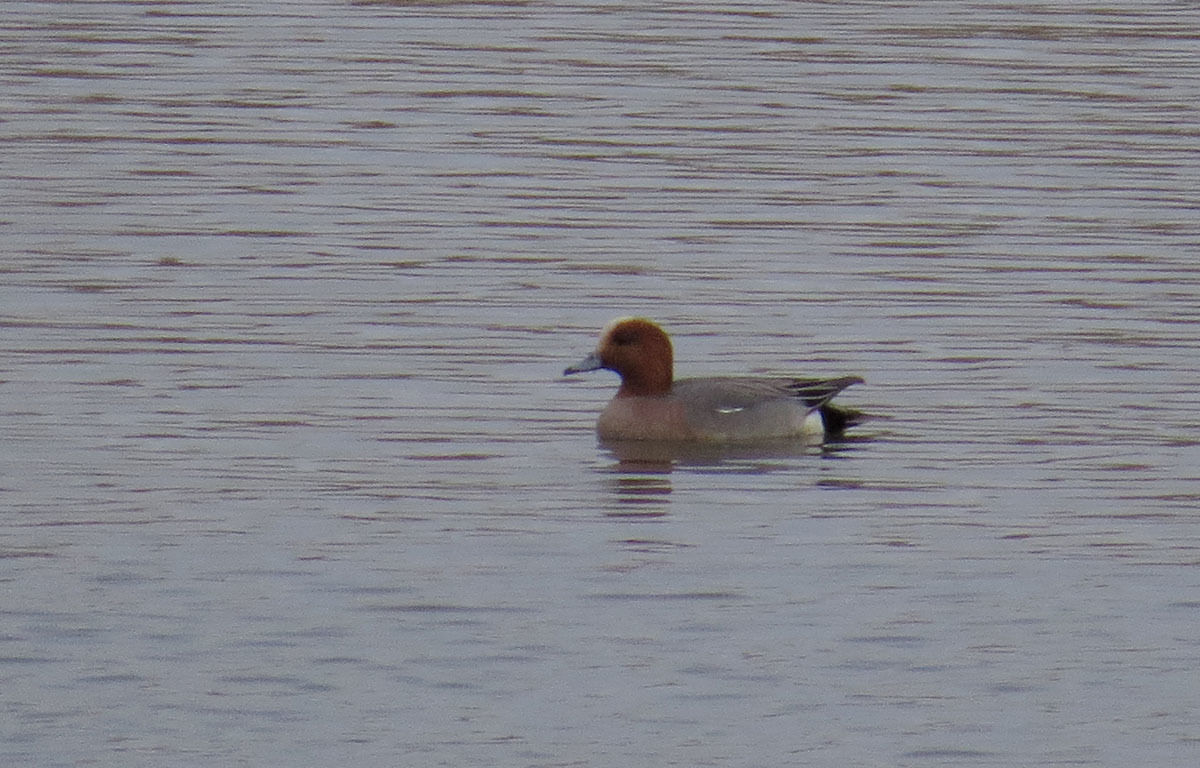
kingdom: Animalia
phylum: Chordata
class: Aves
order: Anseriformes
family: Anatidae
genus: Mareca
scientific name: Mareca penelope
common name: Eurasian wigeon
